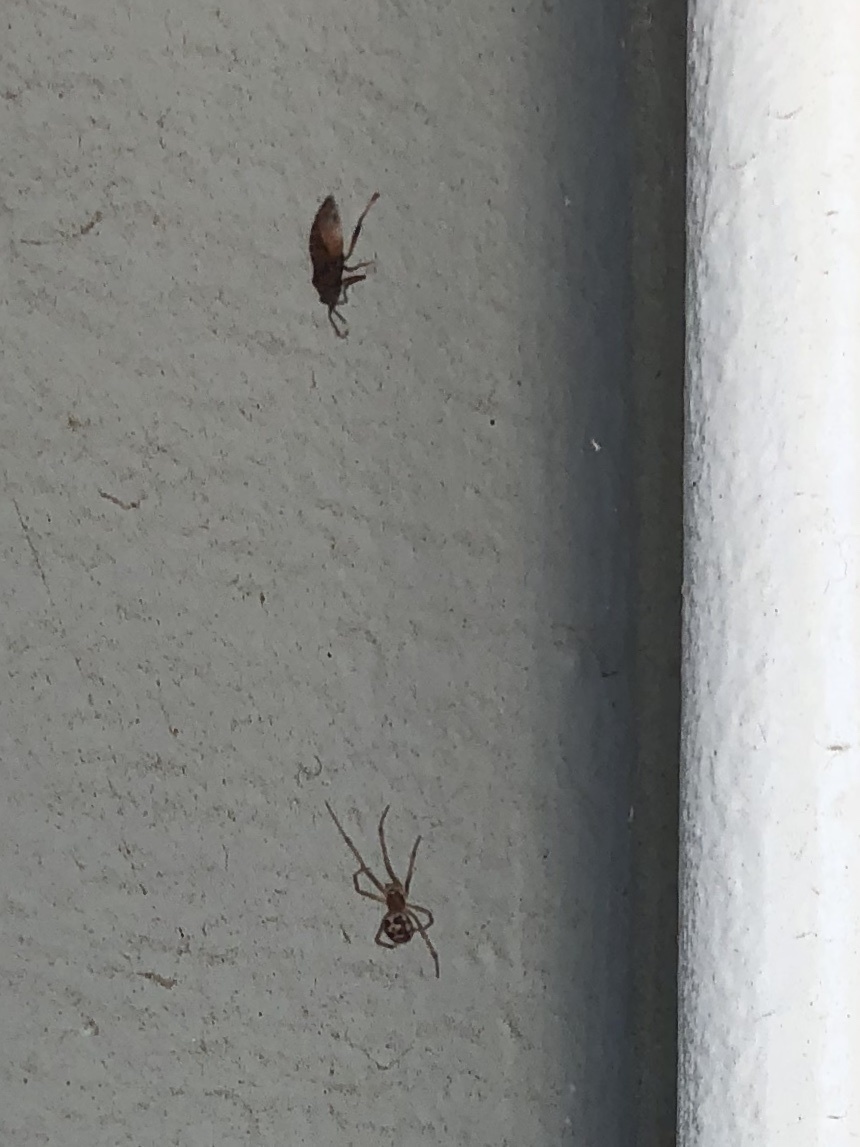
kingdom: Animalia
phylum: Arthropoda
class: Arachnida
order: Araneae
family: Theridiidae
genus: Steatoda
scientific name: Steatoda triangulosa
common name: Triangulate bud spider
